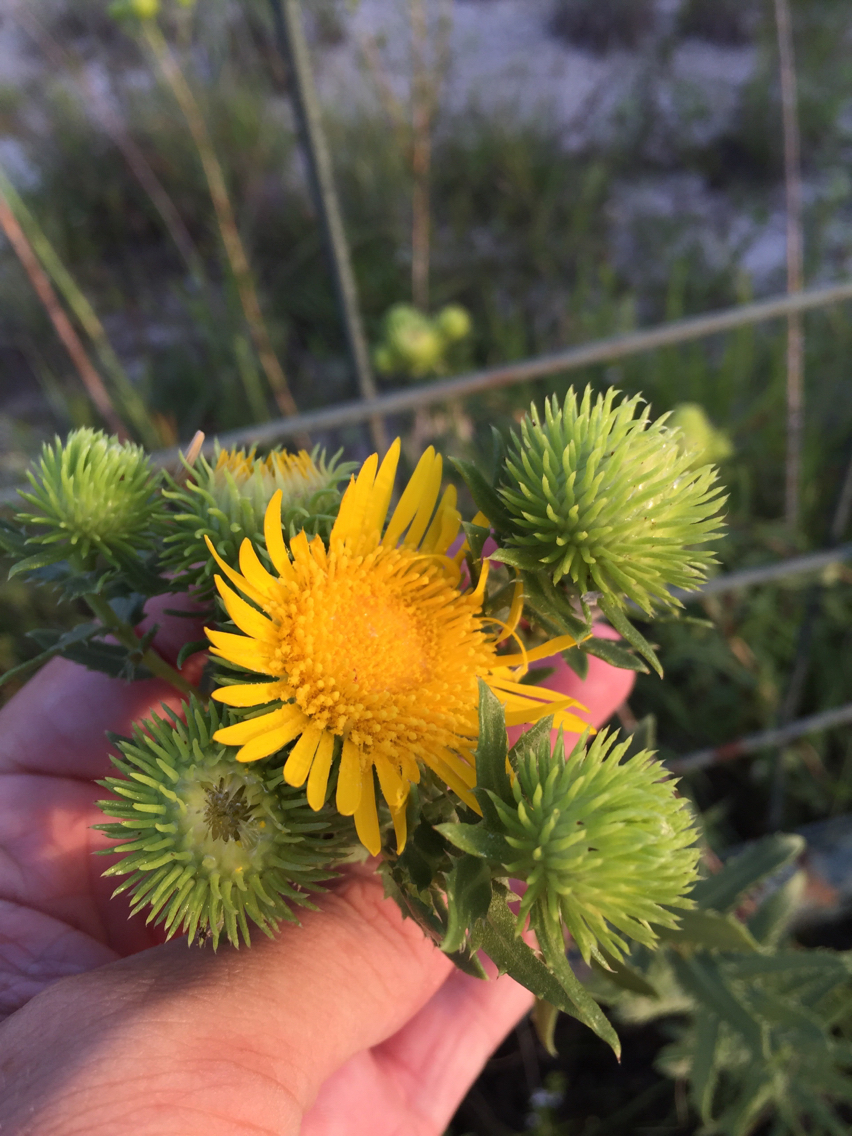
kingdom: Plantae
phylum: Tracheophyta
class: Magnoliopsida
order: Asterales
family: Asteraceae
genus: Grindelia
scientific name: Grindelia lanceolata
